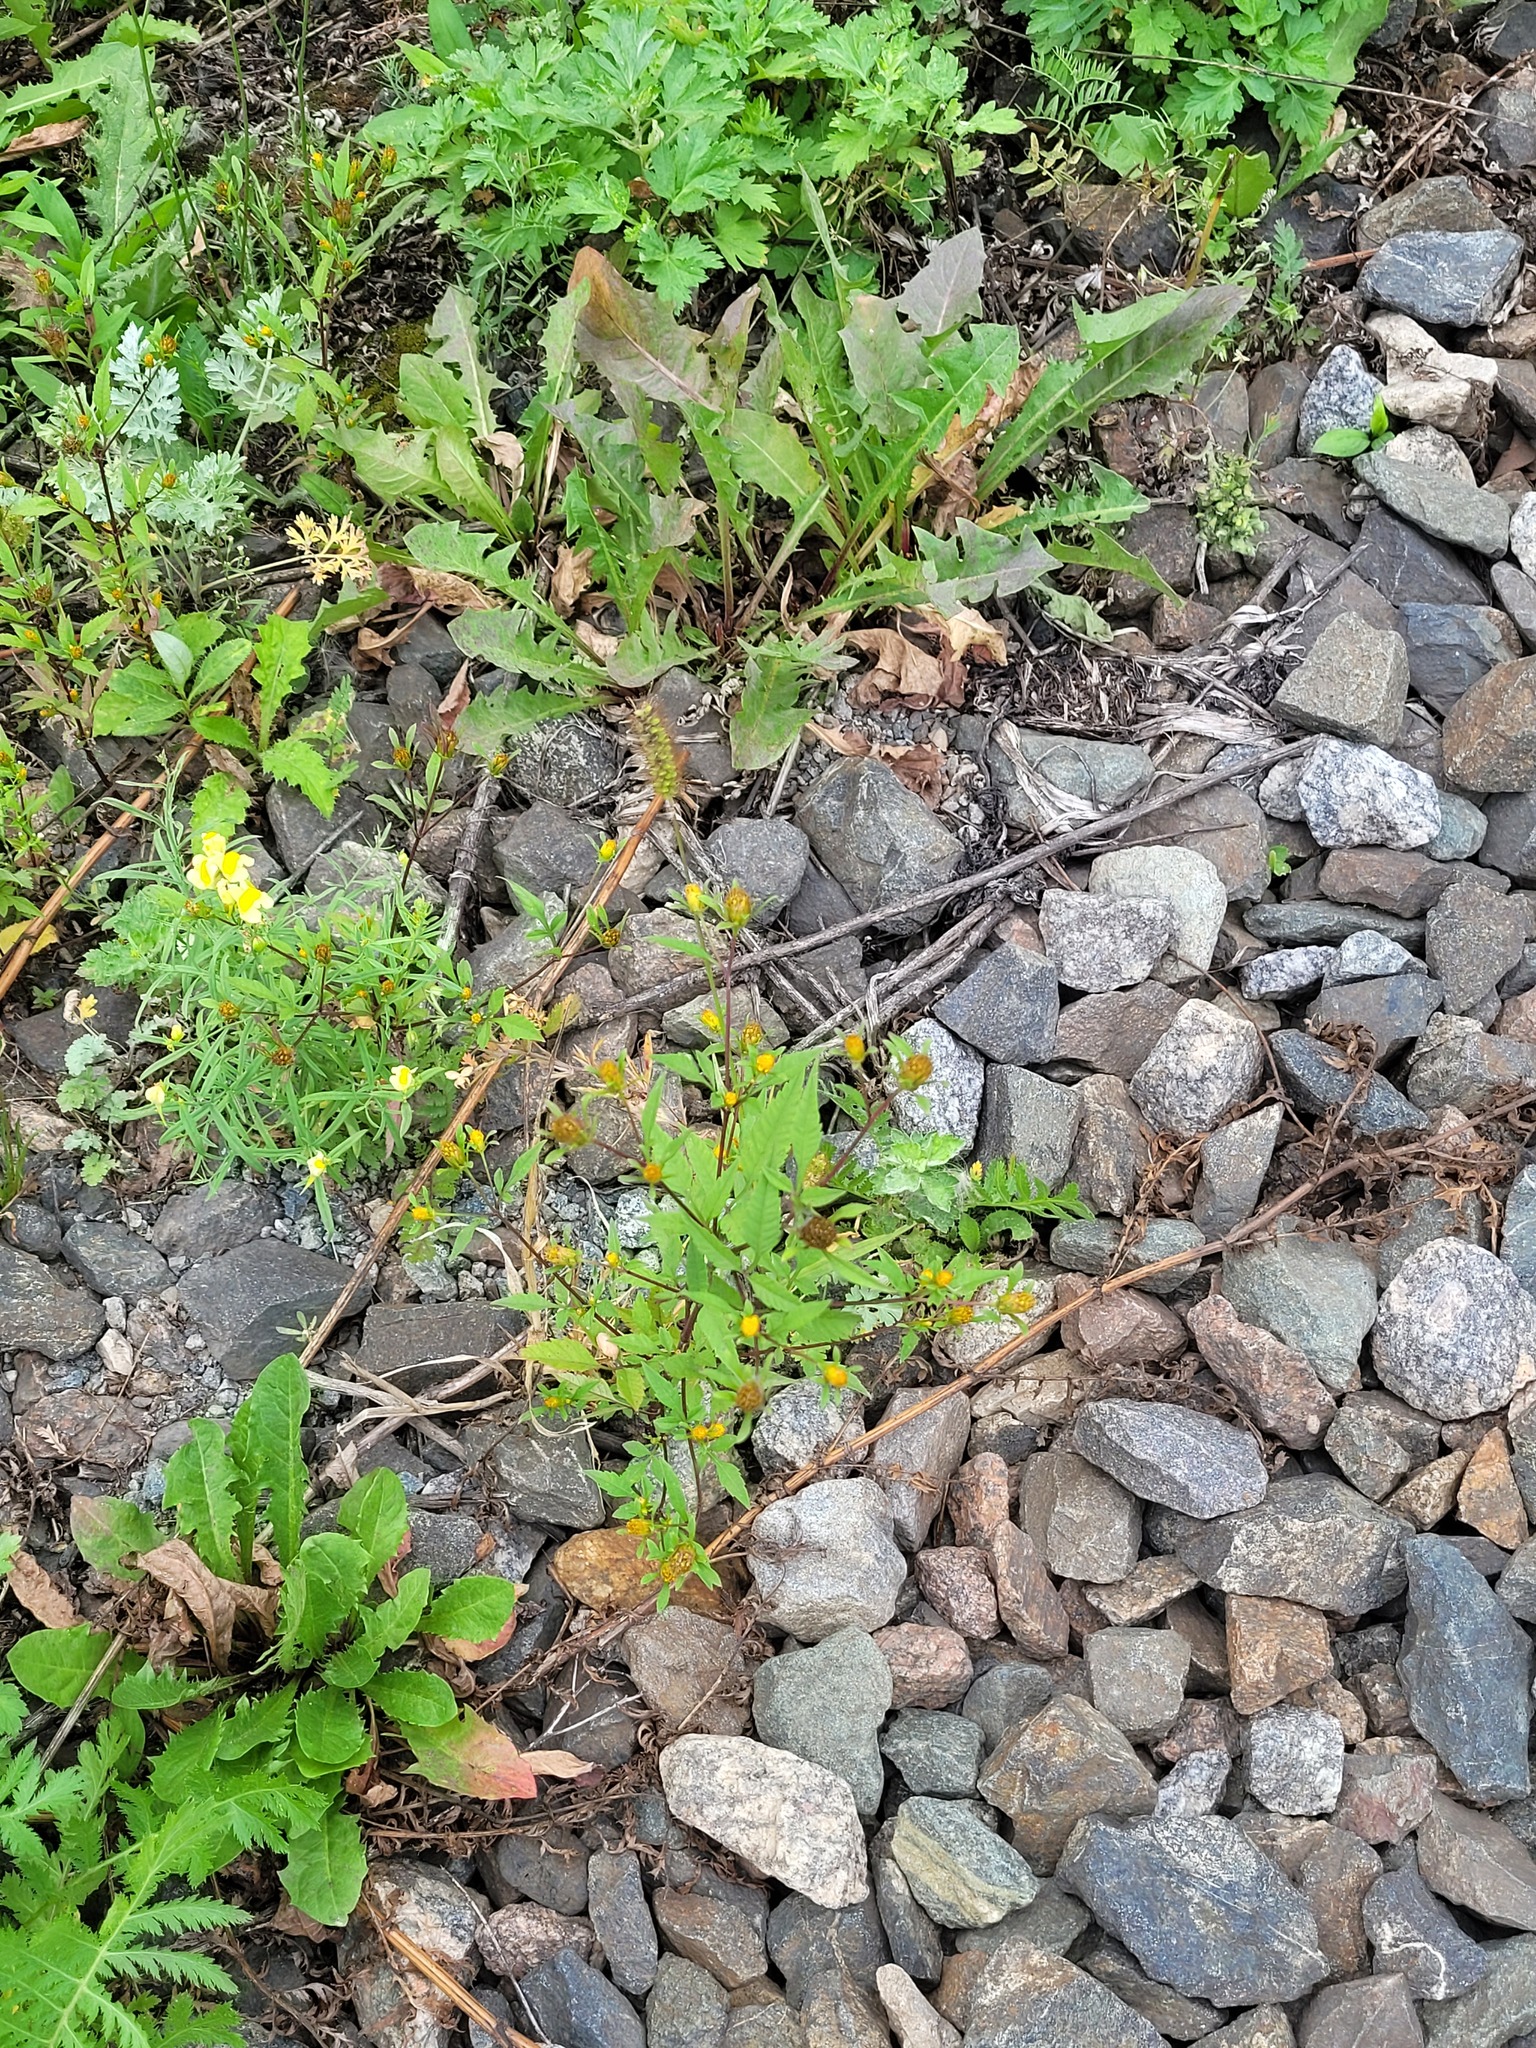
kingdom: Plantae
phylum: Tracheophyta
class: Magnoliopsida
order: Asterales
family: Asteraceae
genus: Bidens
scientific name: Bidens frondosa
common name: Beggarticks
